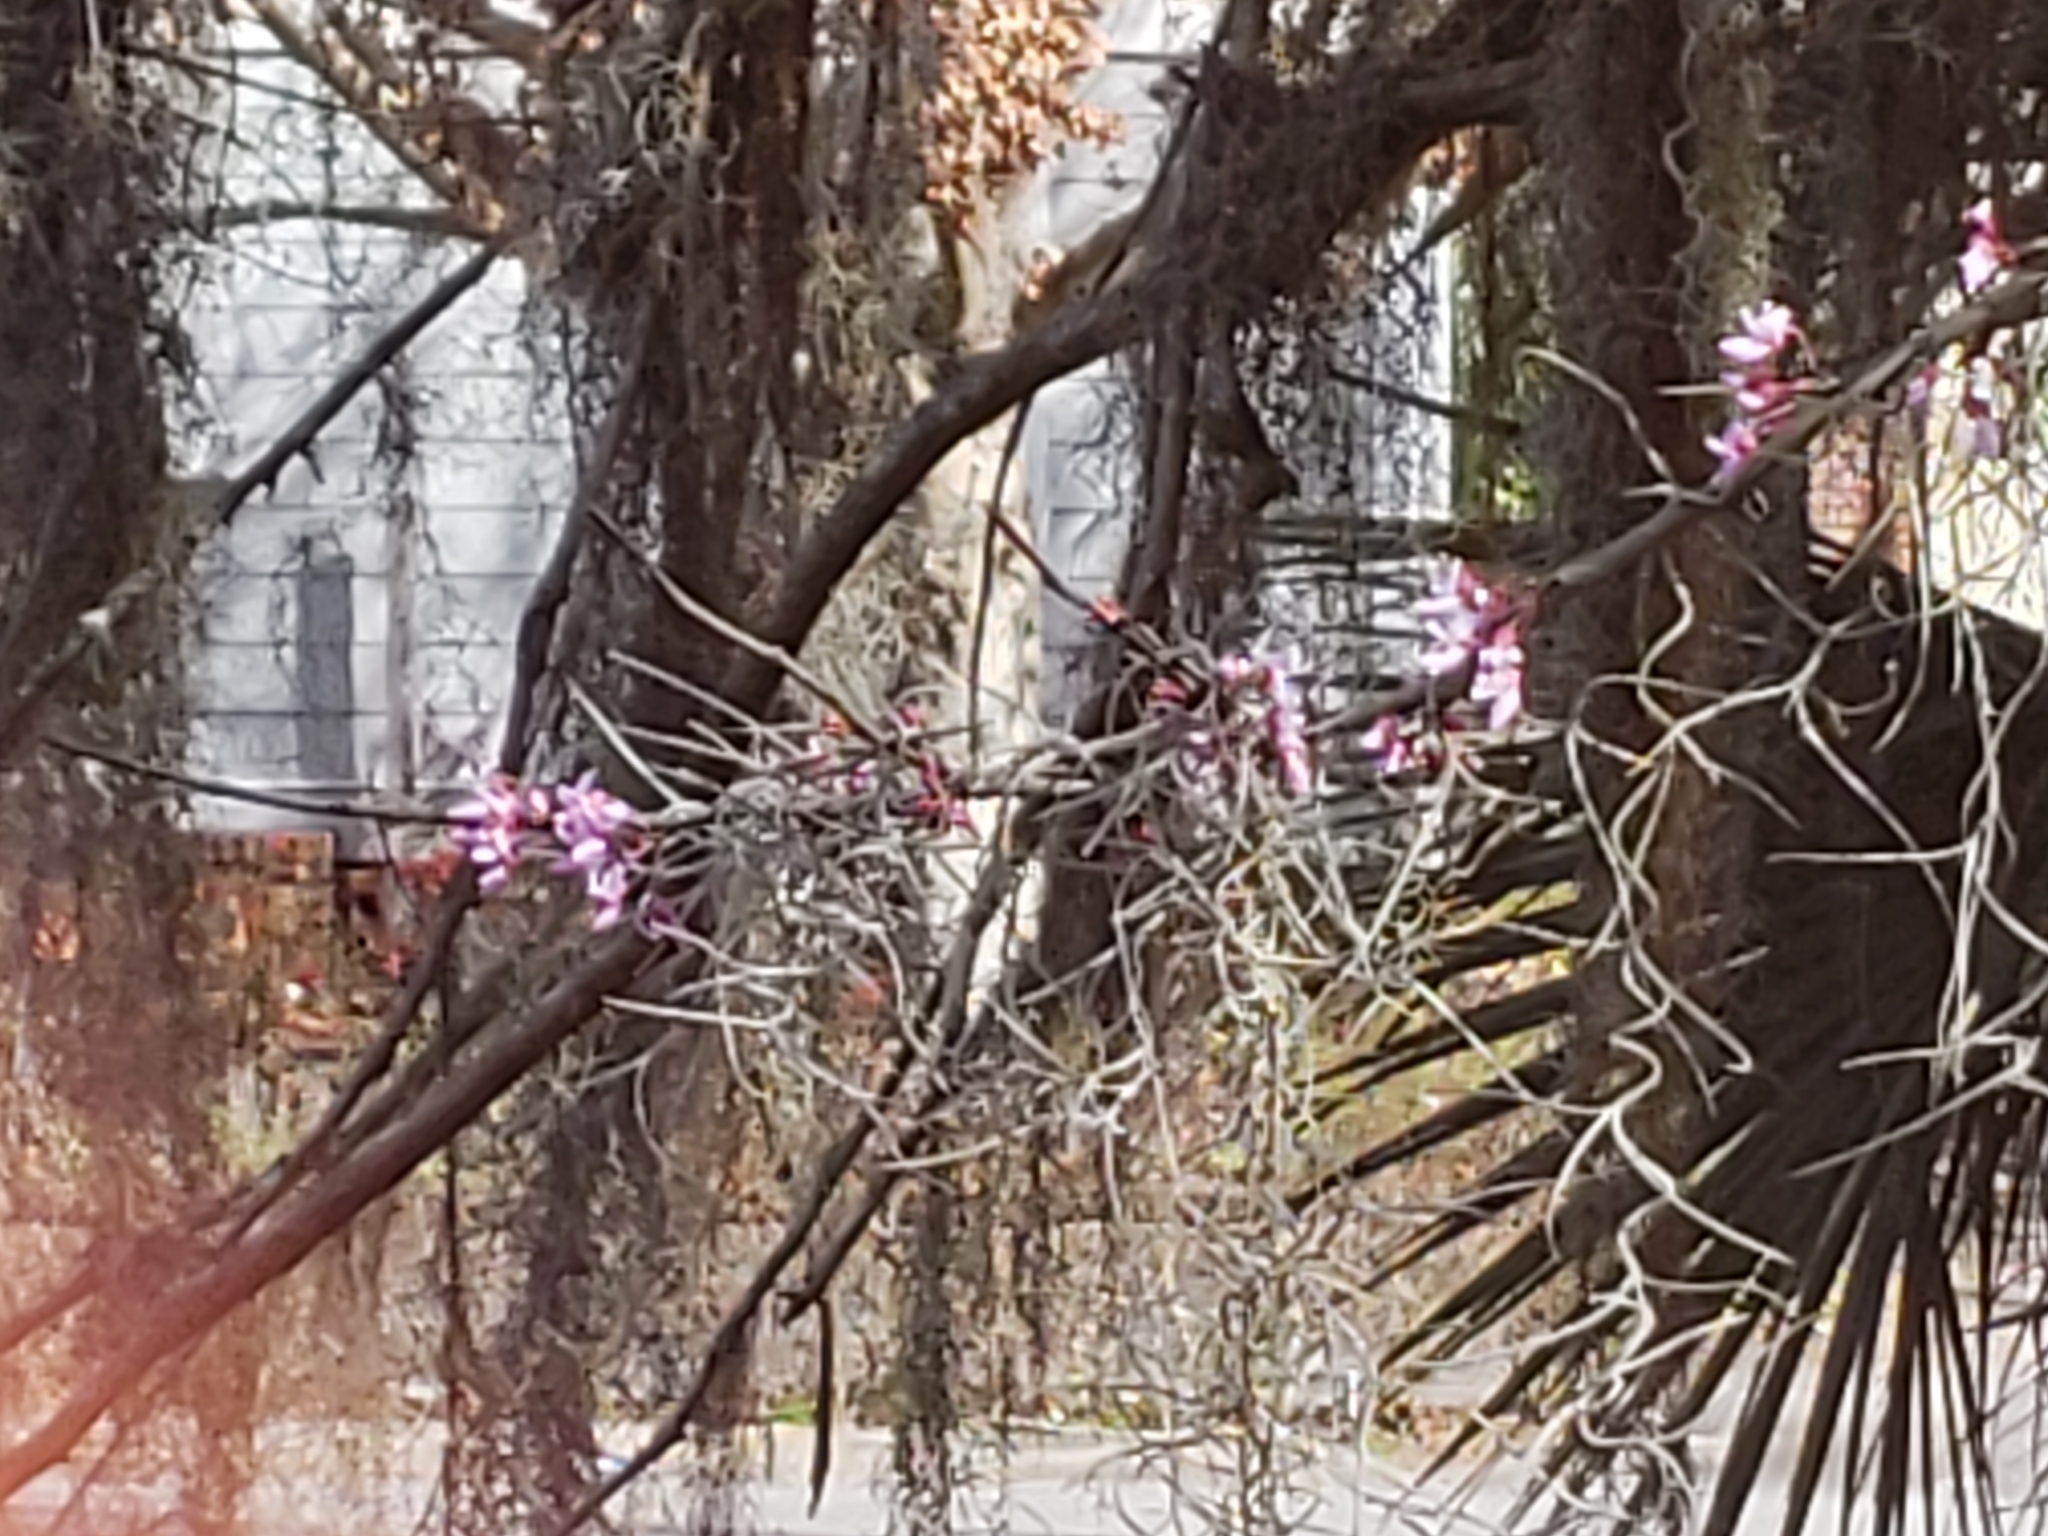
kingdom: Plantae
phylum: Tracheophyta
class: Magnoliopsida
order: Fabales
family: Fabaceae
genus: Cercis
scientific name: Cercis canadensis
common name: Eastern redbud
